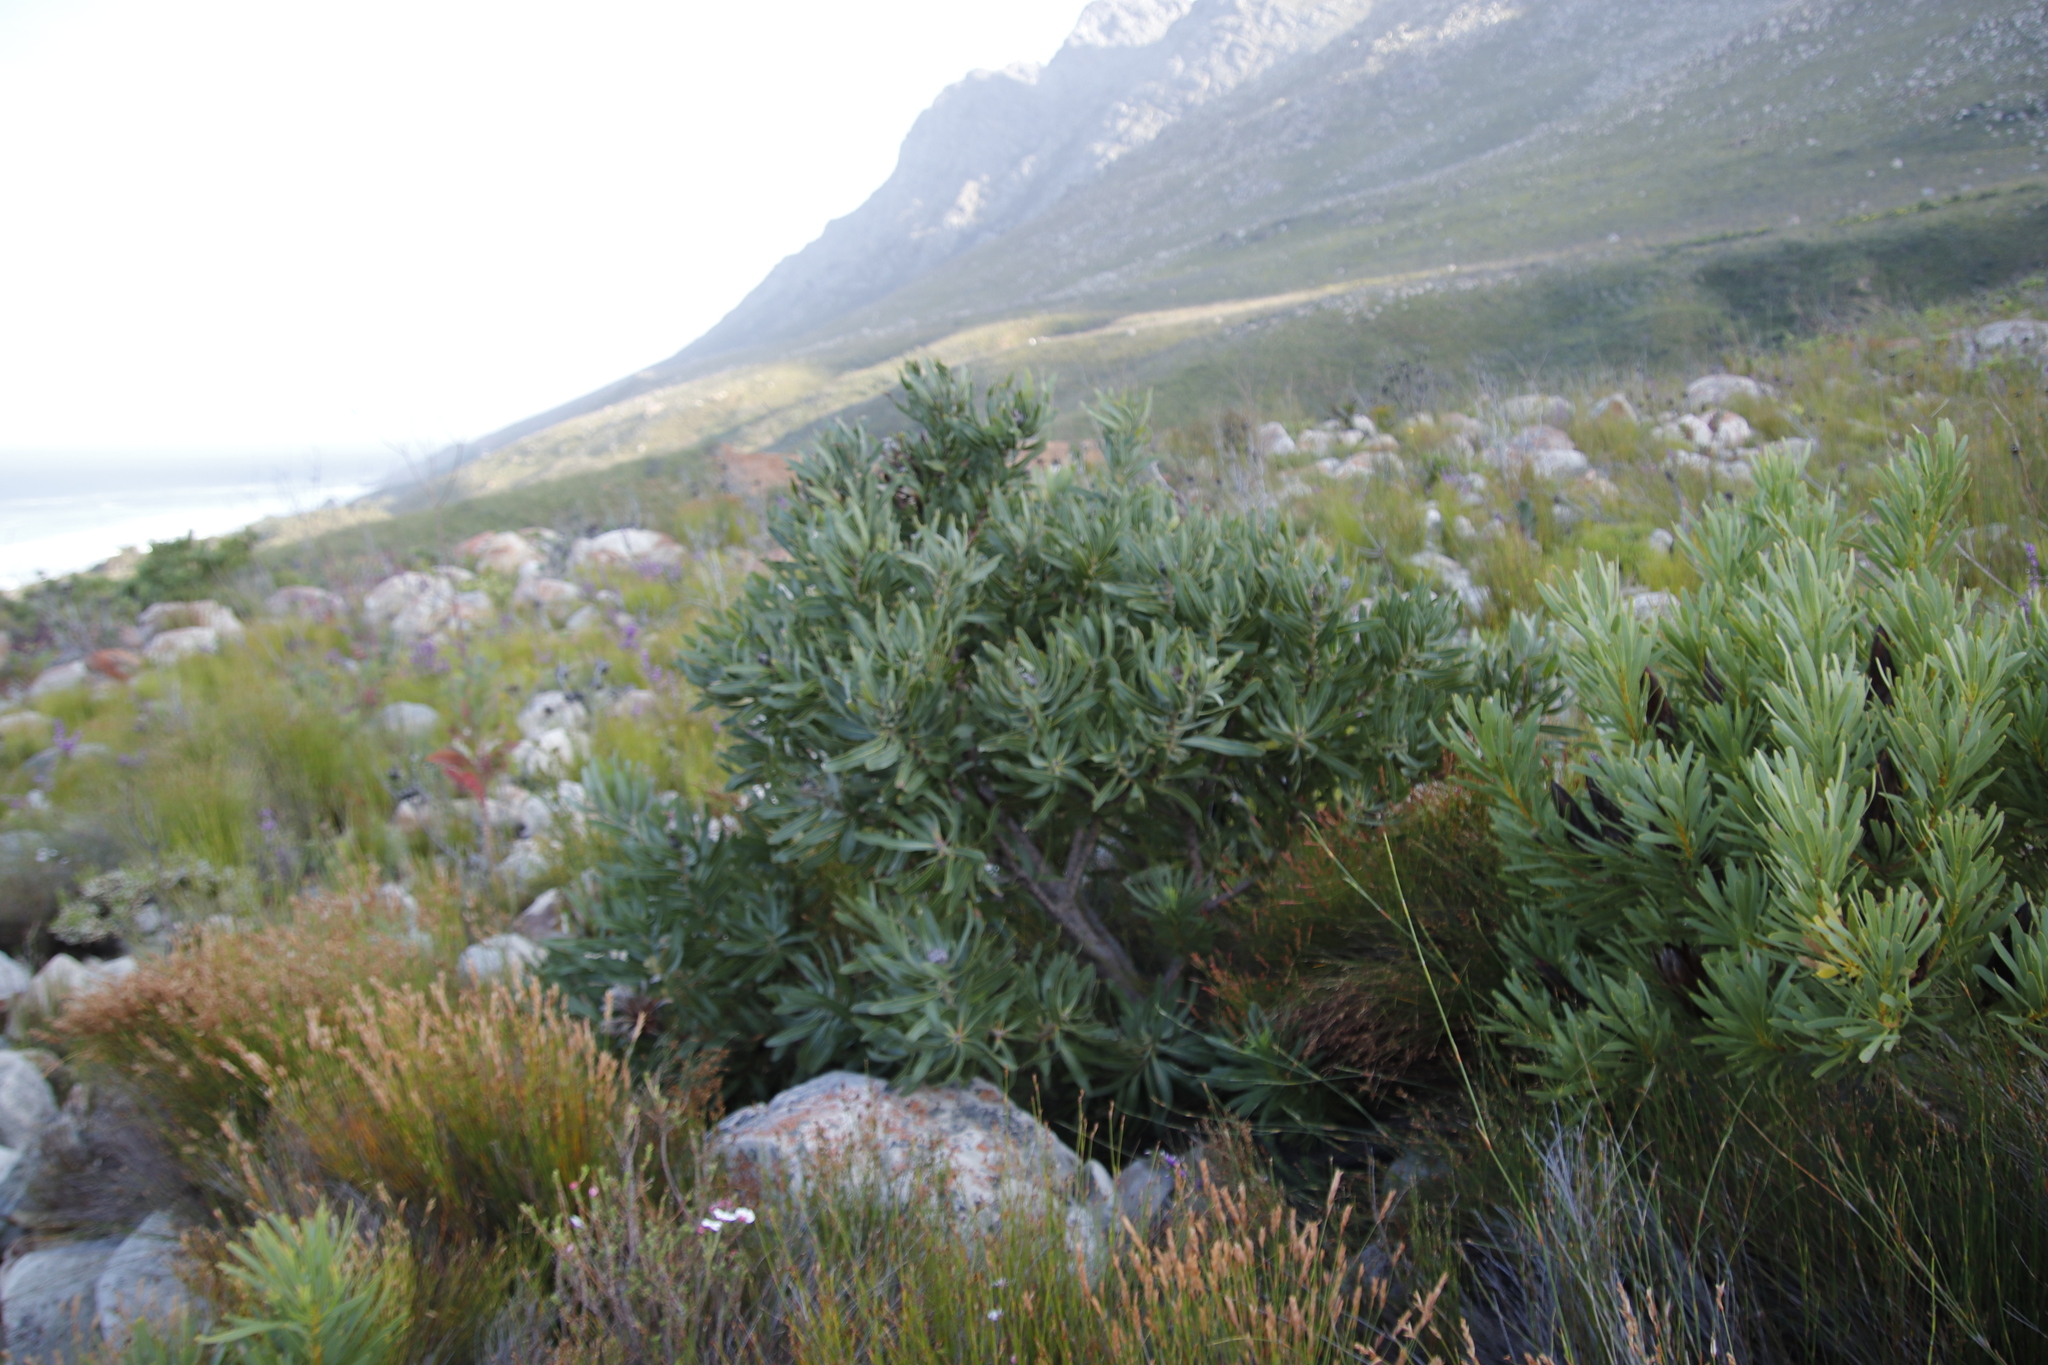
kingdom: Plantae
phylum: Tracheophyta
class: Magnoliopsida
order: Proteales
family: Proteaceae
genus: Protea
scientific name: Protea laurifolia
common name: Grey-leaf sugarbsh
